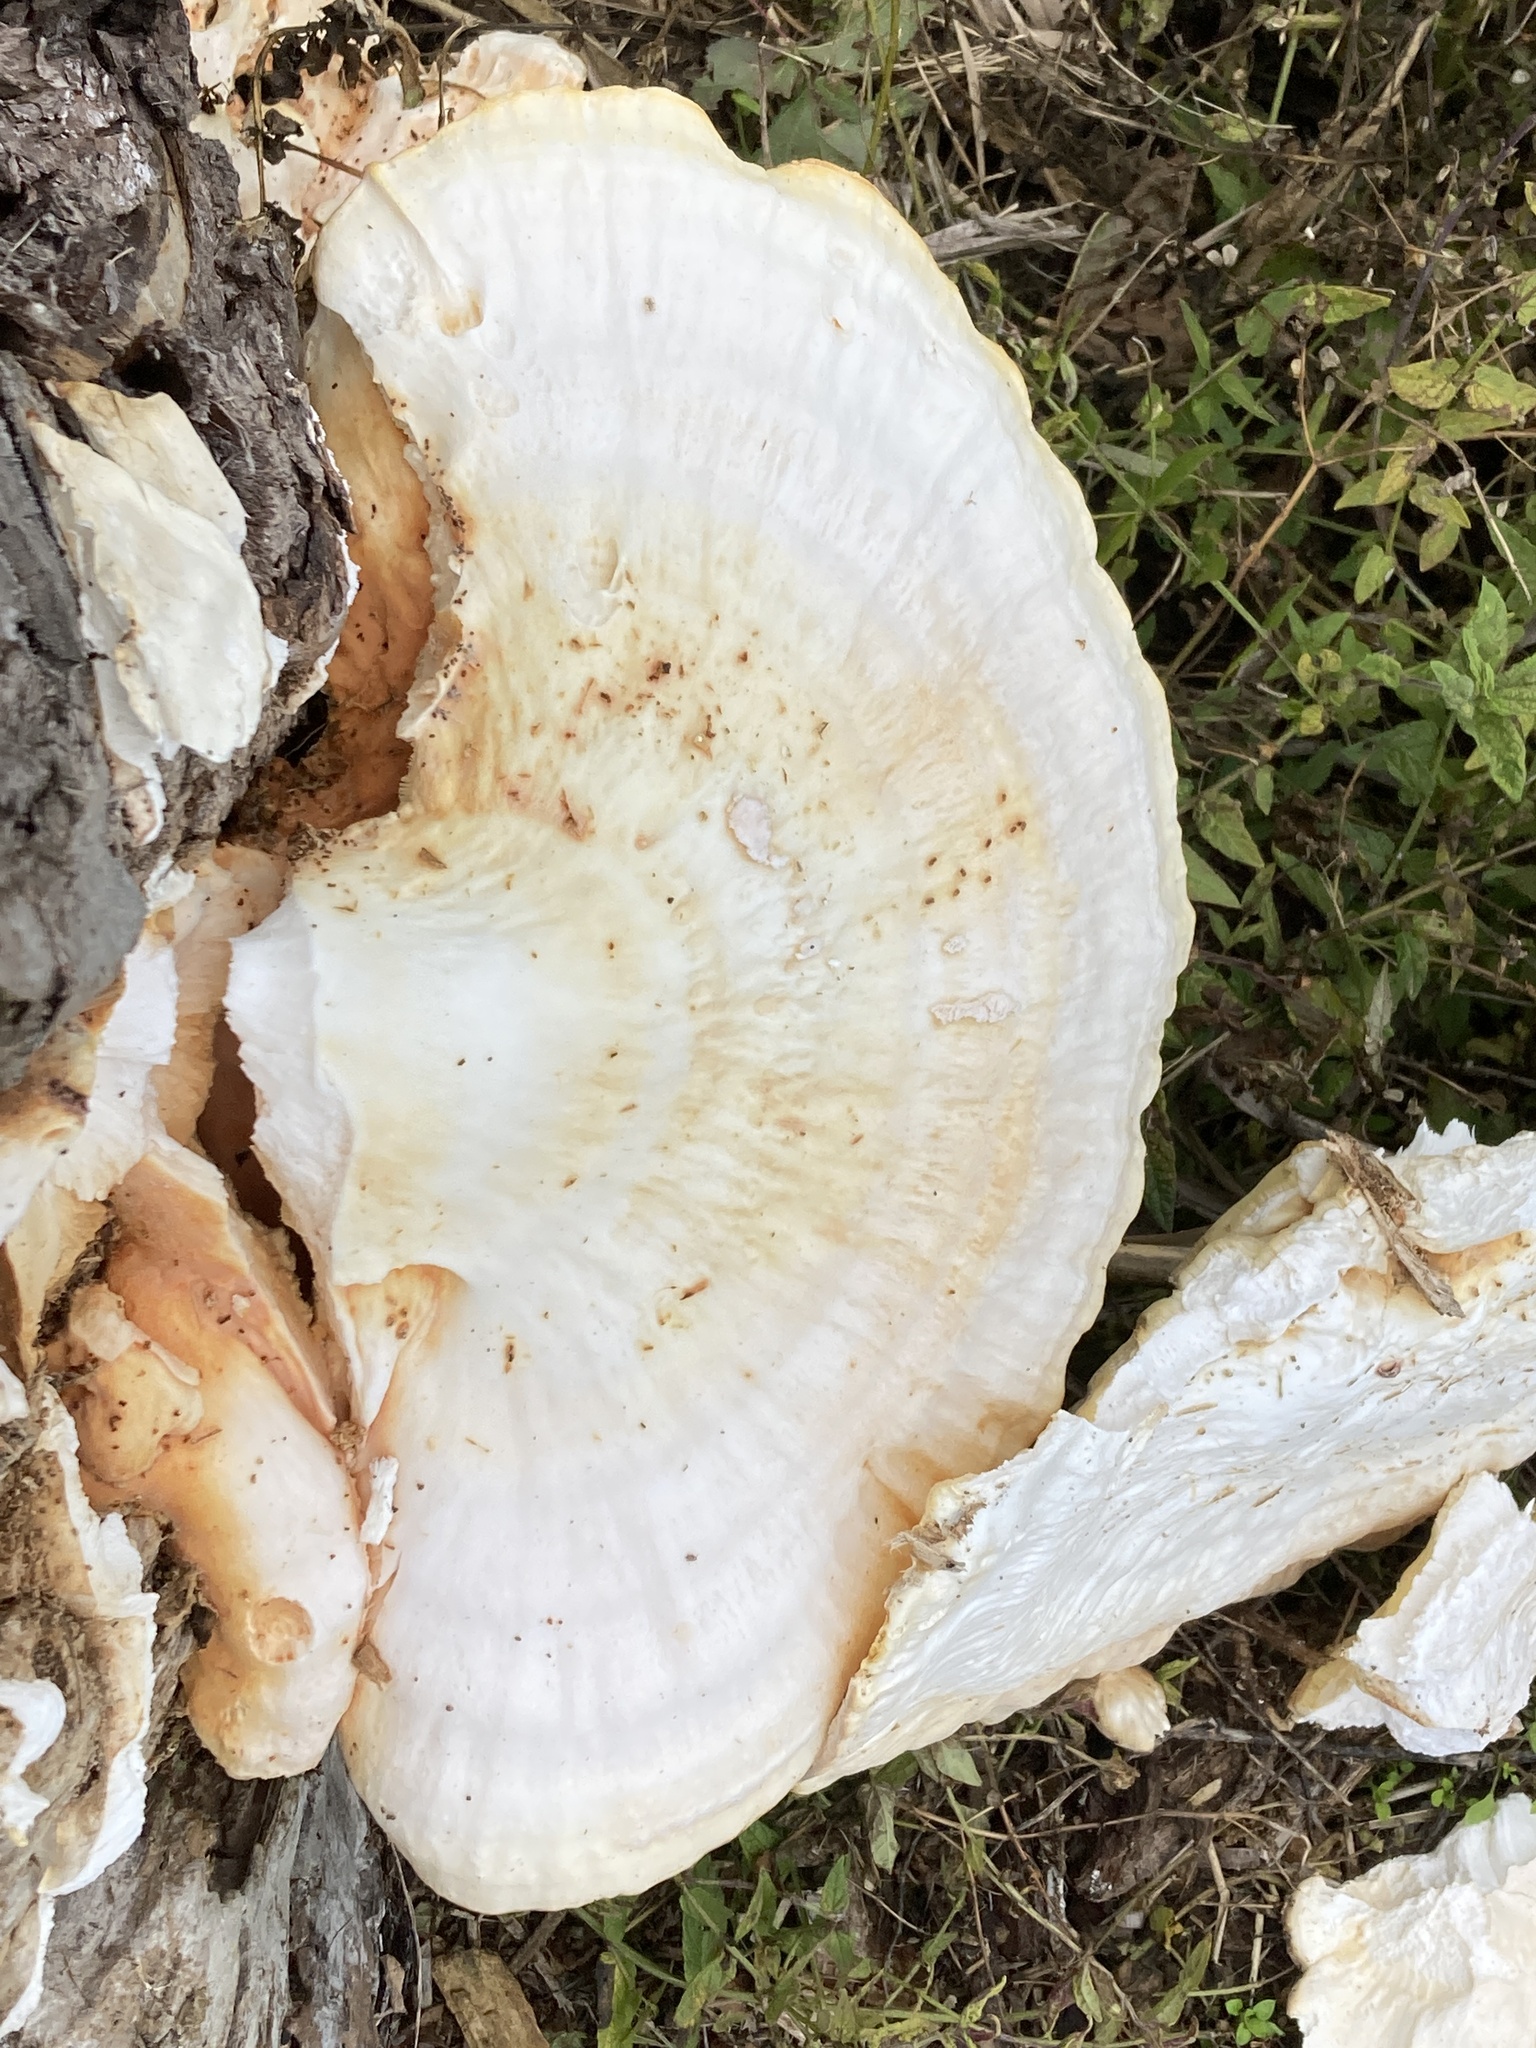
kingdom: Fungi
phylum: Basidiomycota
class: Agaricomycetes
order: Polyporales
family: Laetiporaceae
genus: Laetiporus
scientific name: Laetiporus sulphureus
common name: Chicken of the woods
